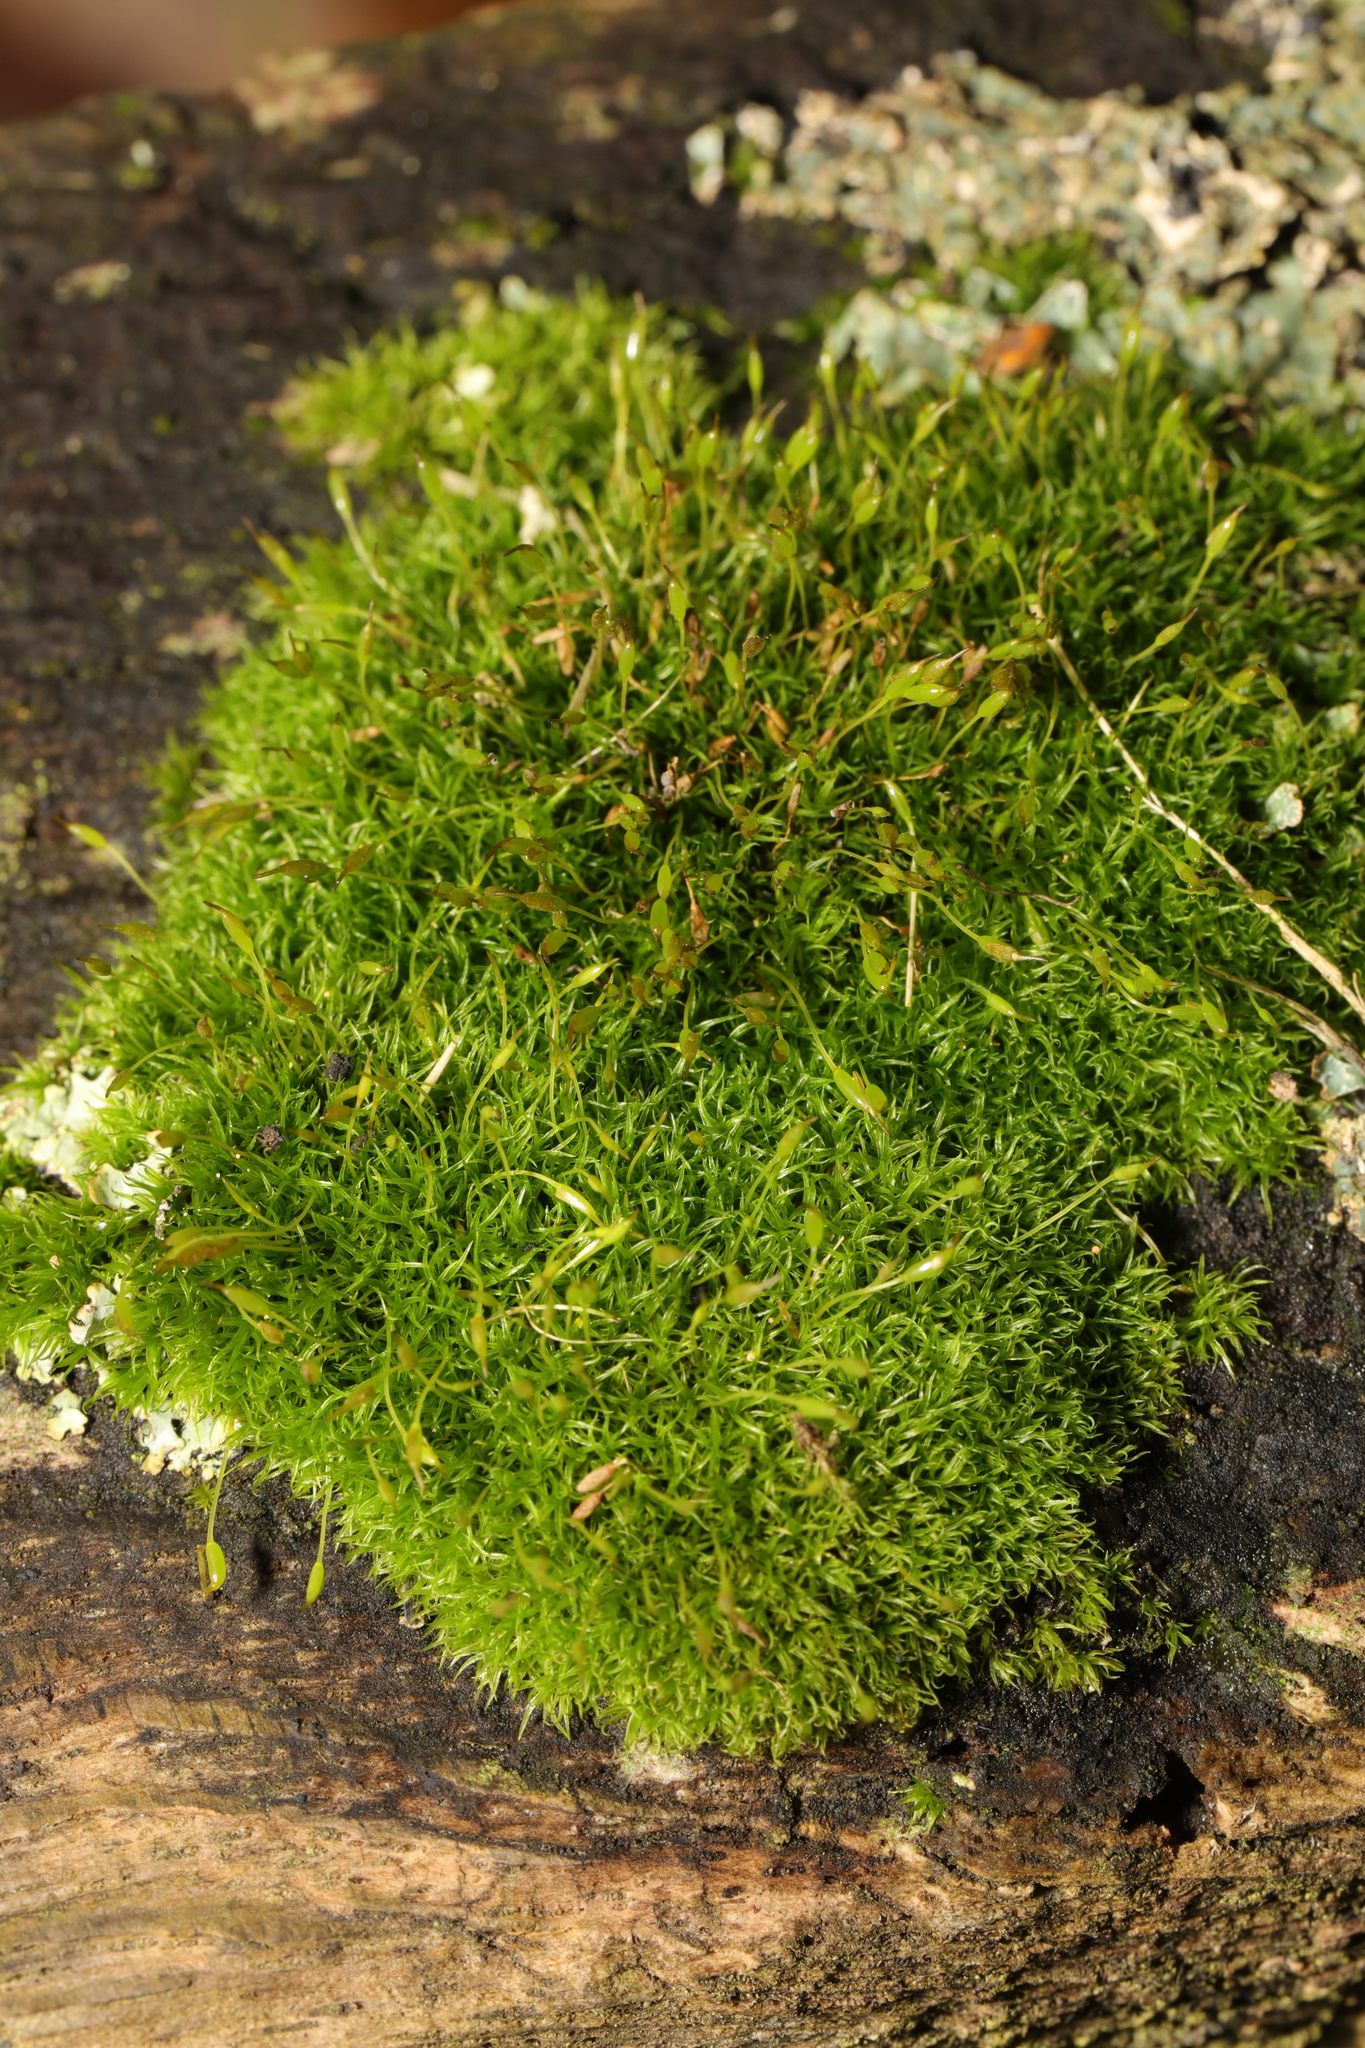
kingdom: Plantae
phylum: Bryophyta
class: Bryopsida
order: Dicranales
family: Rhabdoweisiaceae
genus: Dicranoweisia
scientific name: Dicranoweisia cirrata
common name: Common pincushion
